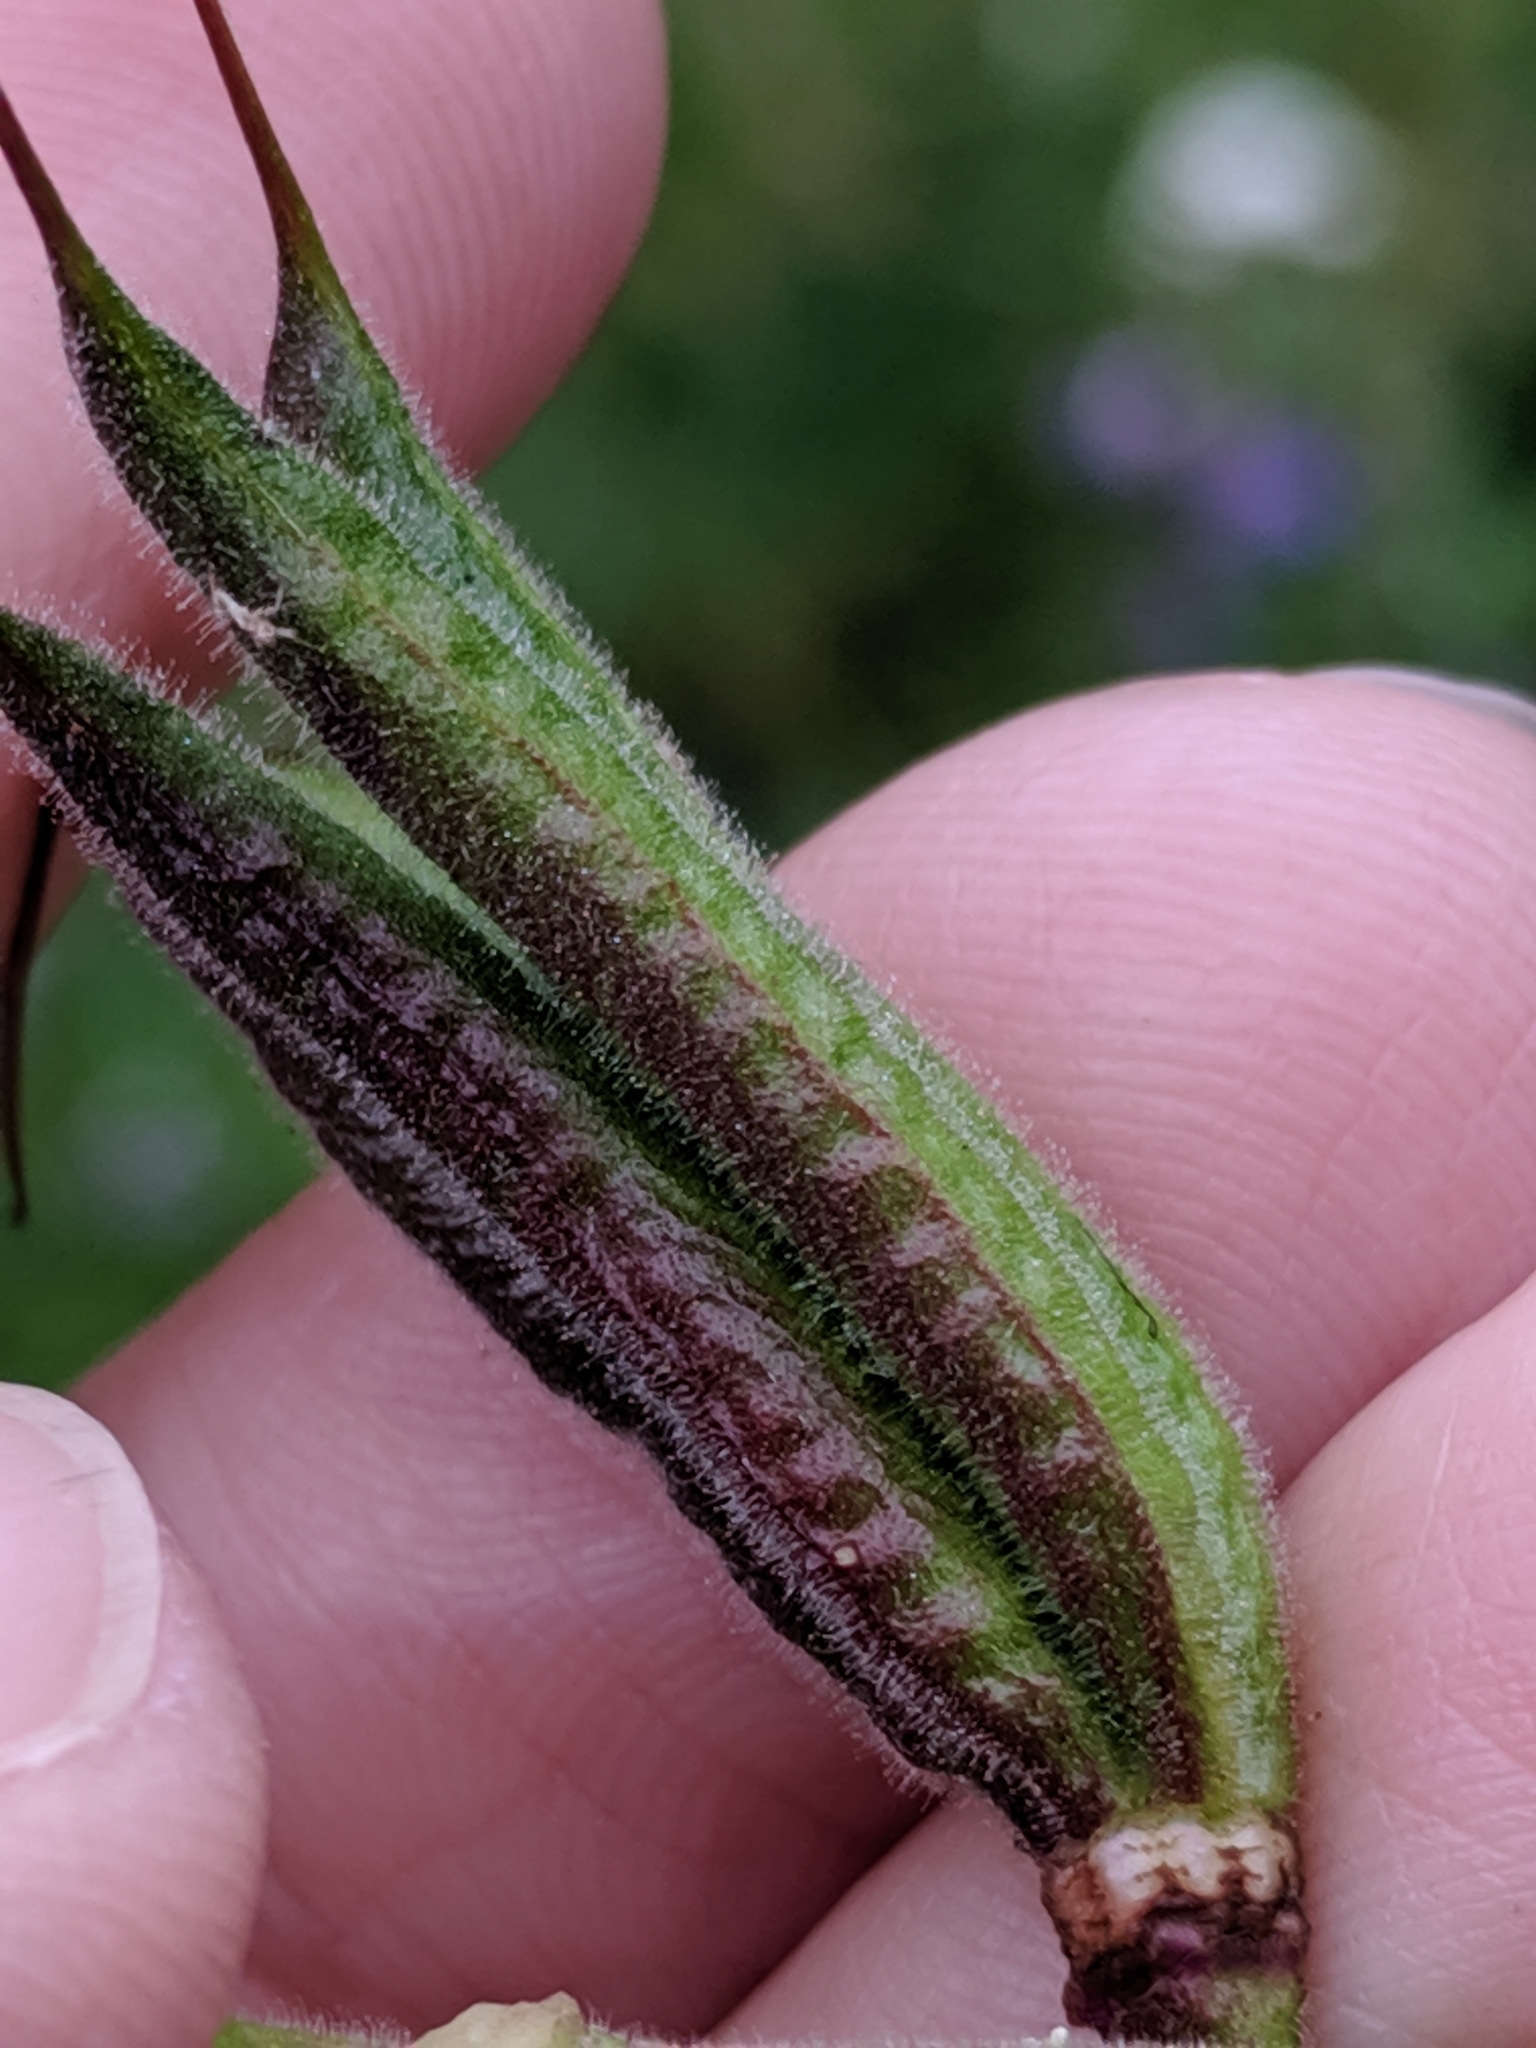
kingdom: Plantae
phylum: Tracheophyta
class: Magnoliopsida
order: Ranunculales
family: Ranunculaceae
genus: Aquilegia
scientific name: Aquilegia flavescens
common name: Yellow columbine
